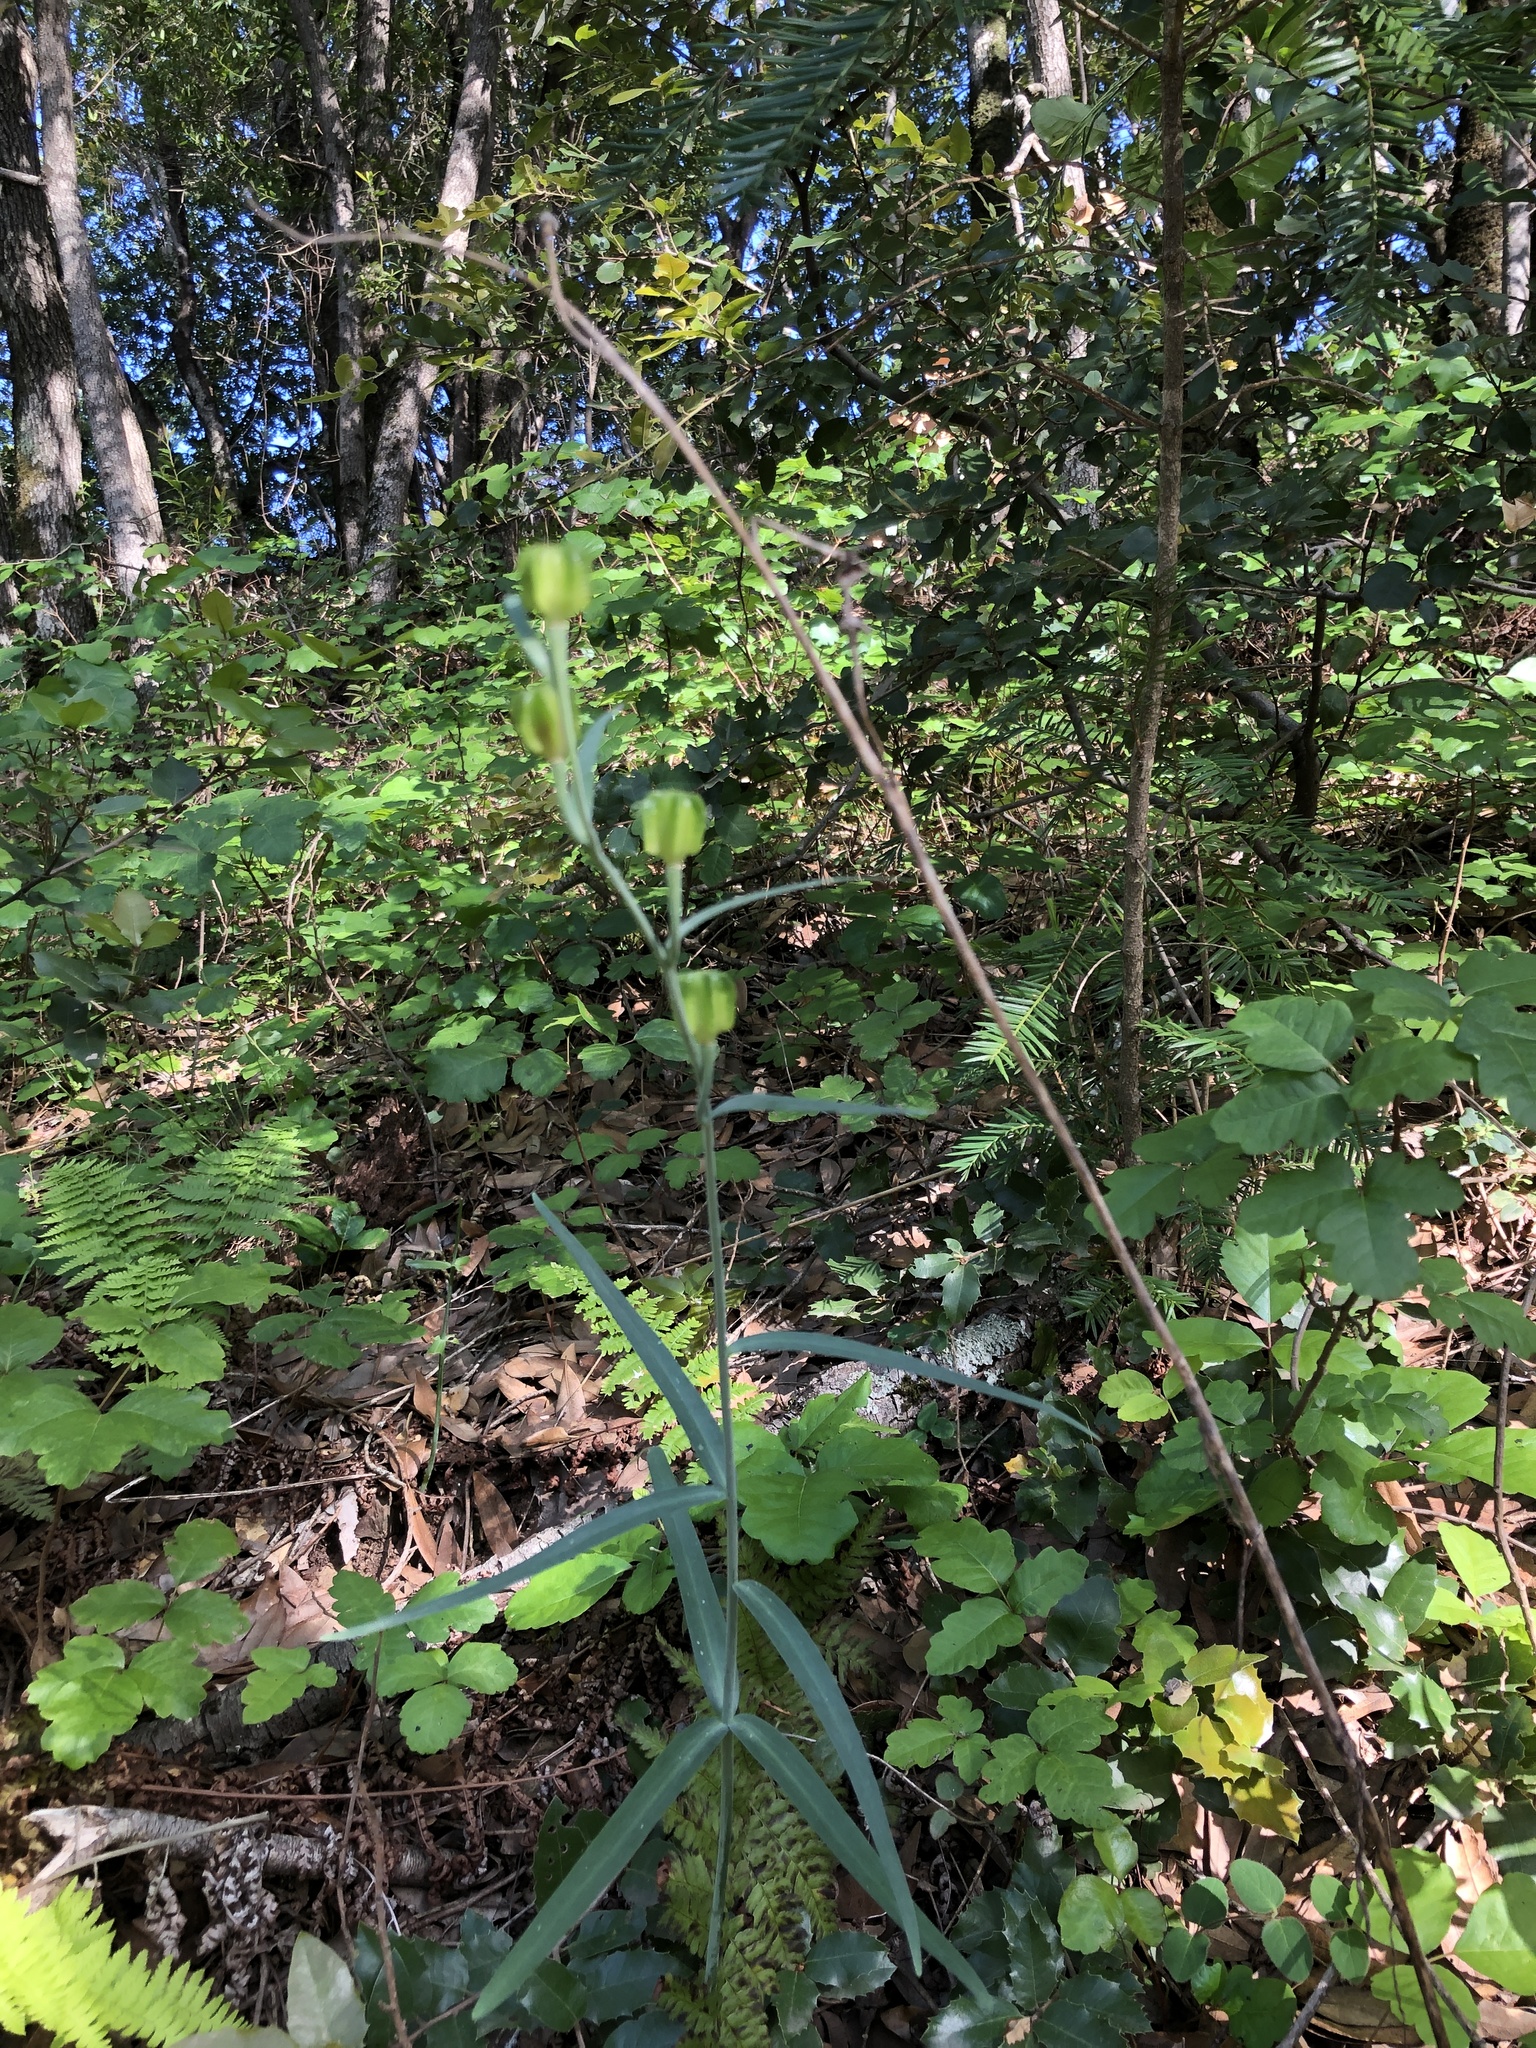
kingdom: Plantae
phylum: Tracheophyta
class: Liliopsida
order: Liliales
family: Liliaceae
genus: Fritillaria
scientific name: Fritillaria affinis
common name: Ojai fritillary
